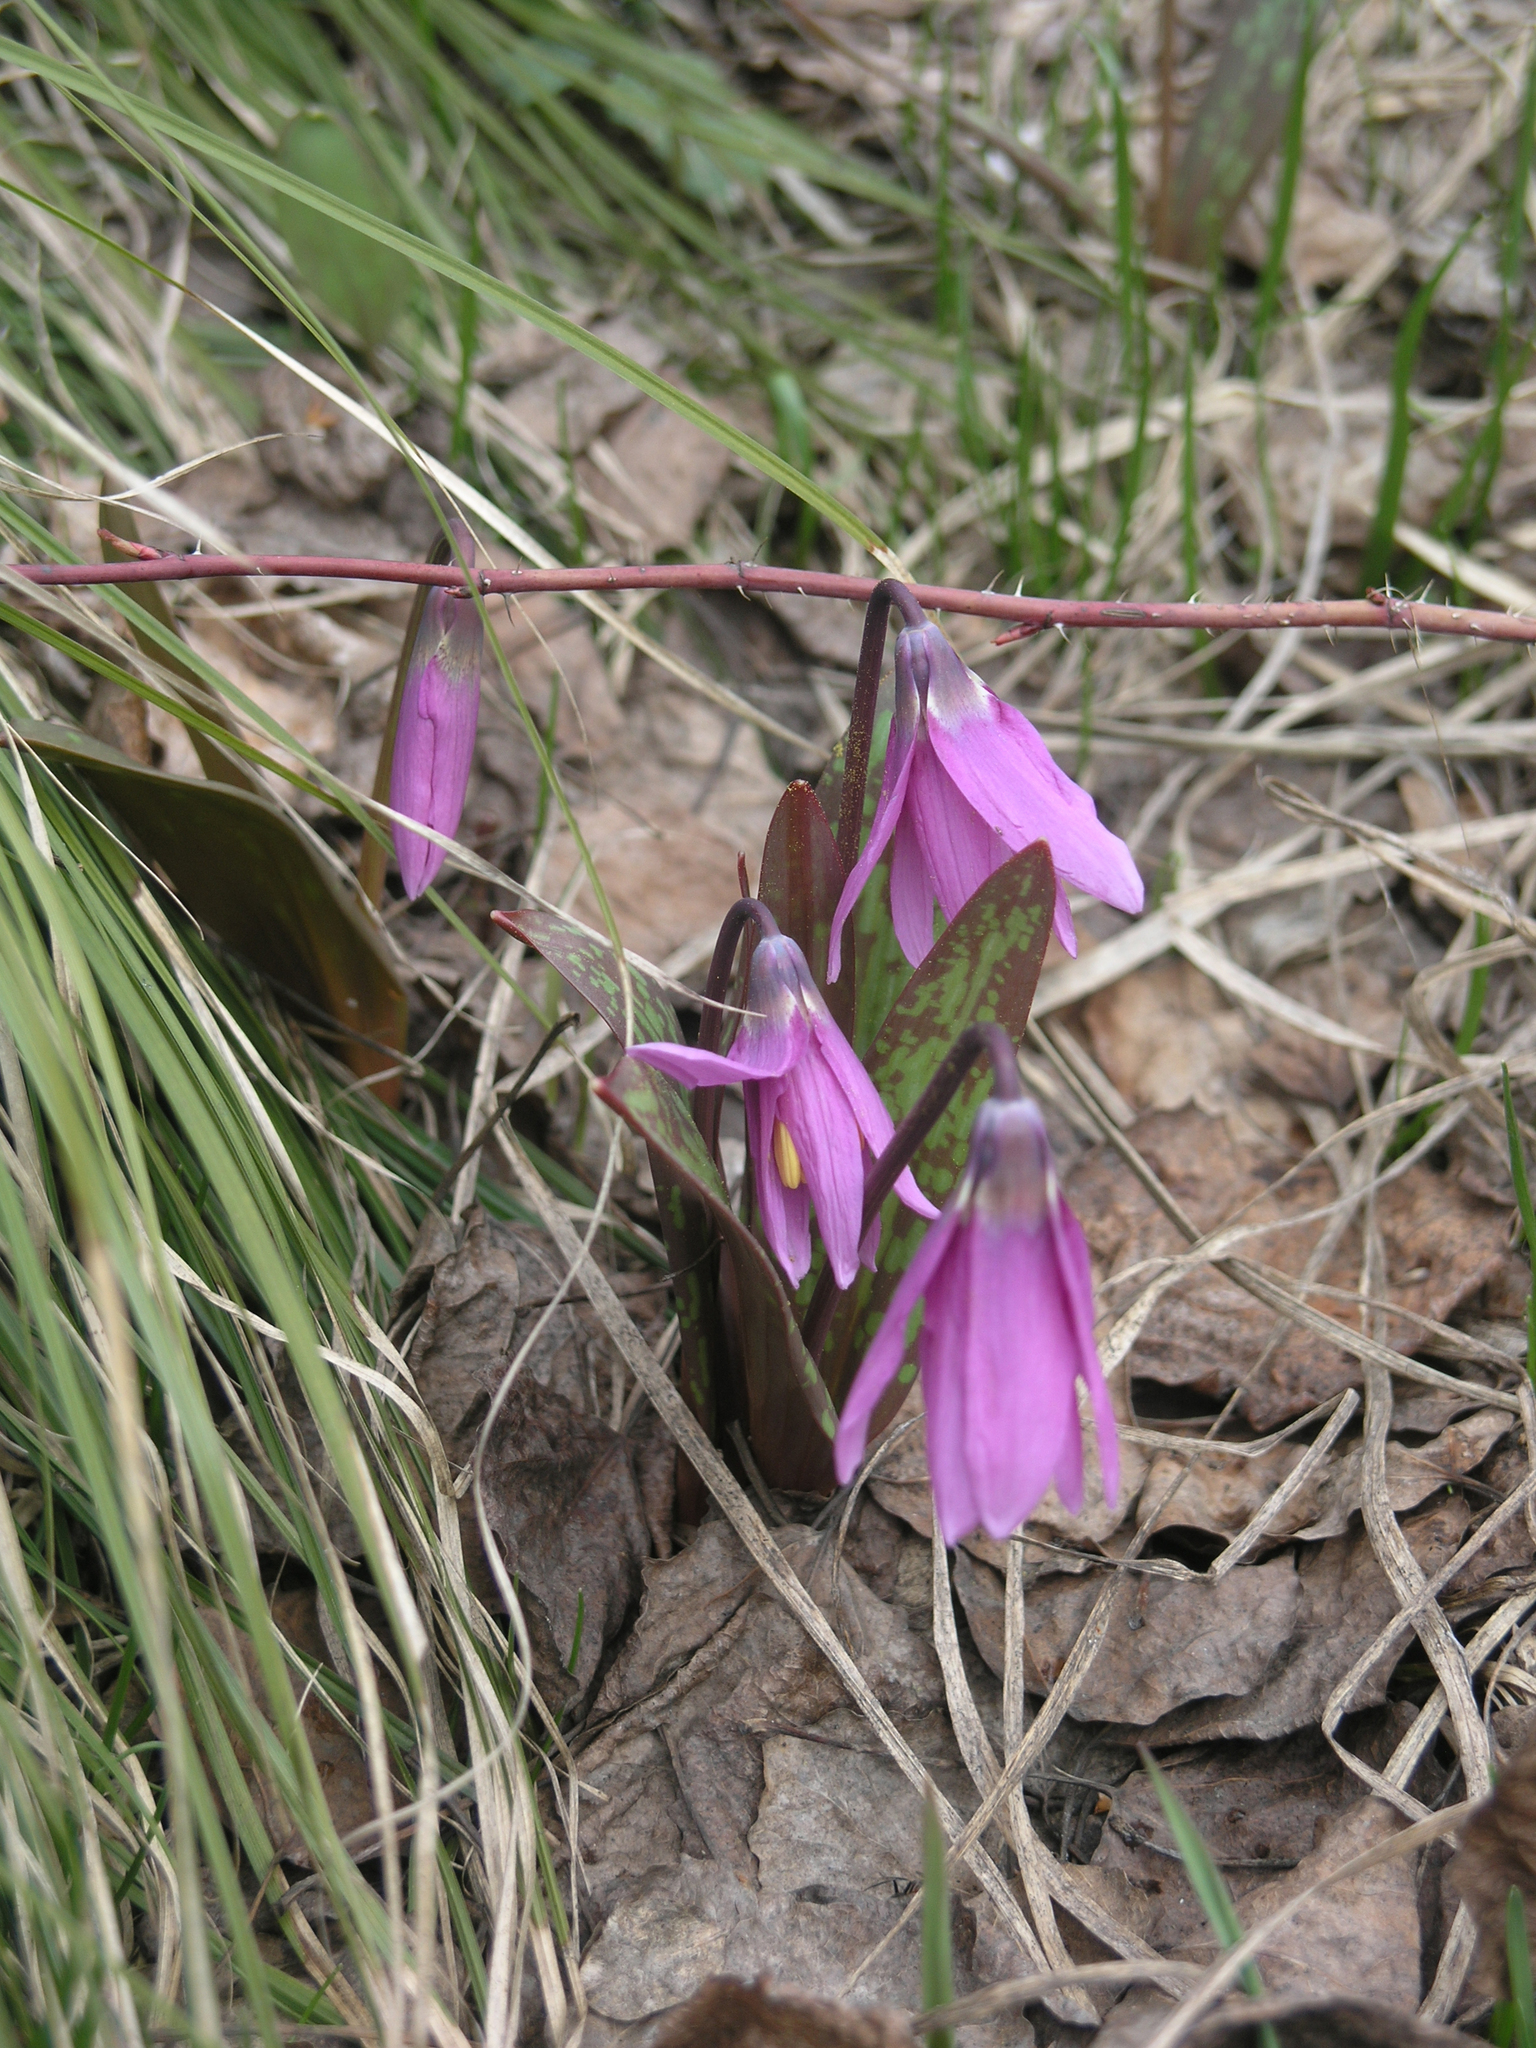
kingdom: Plantae
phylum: Tracheophyta
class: Liliopsida
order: Liliales
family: Liliaceae
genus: Erythronium
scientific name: Erythronium sibiricum
